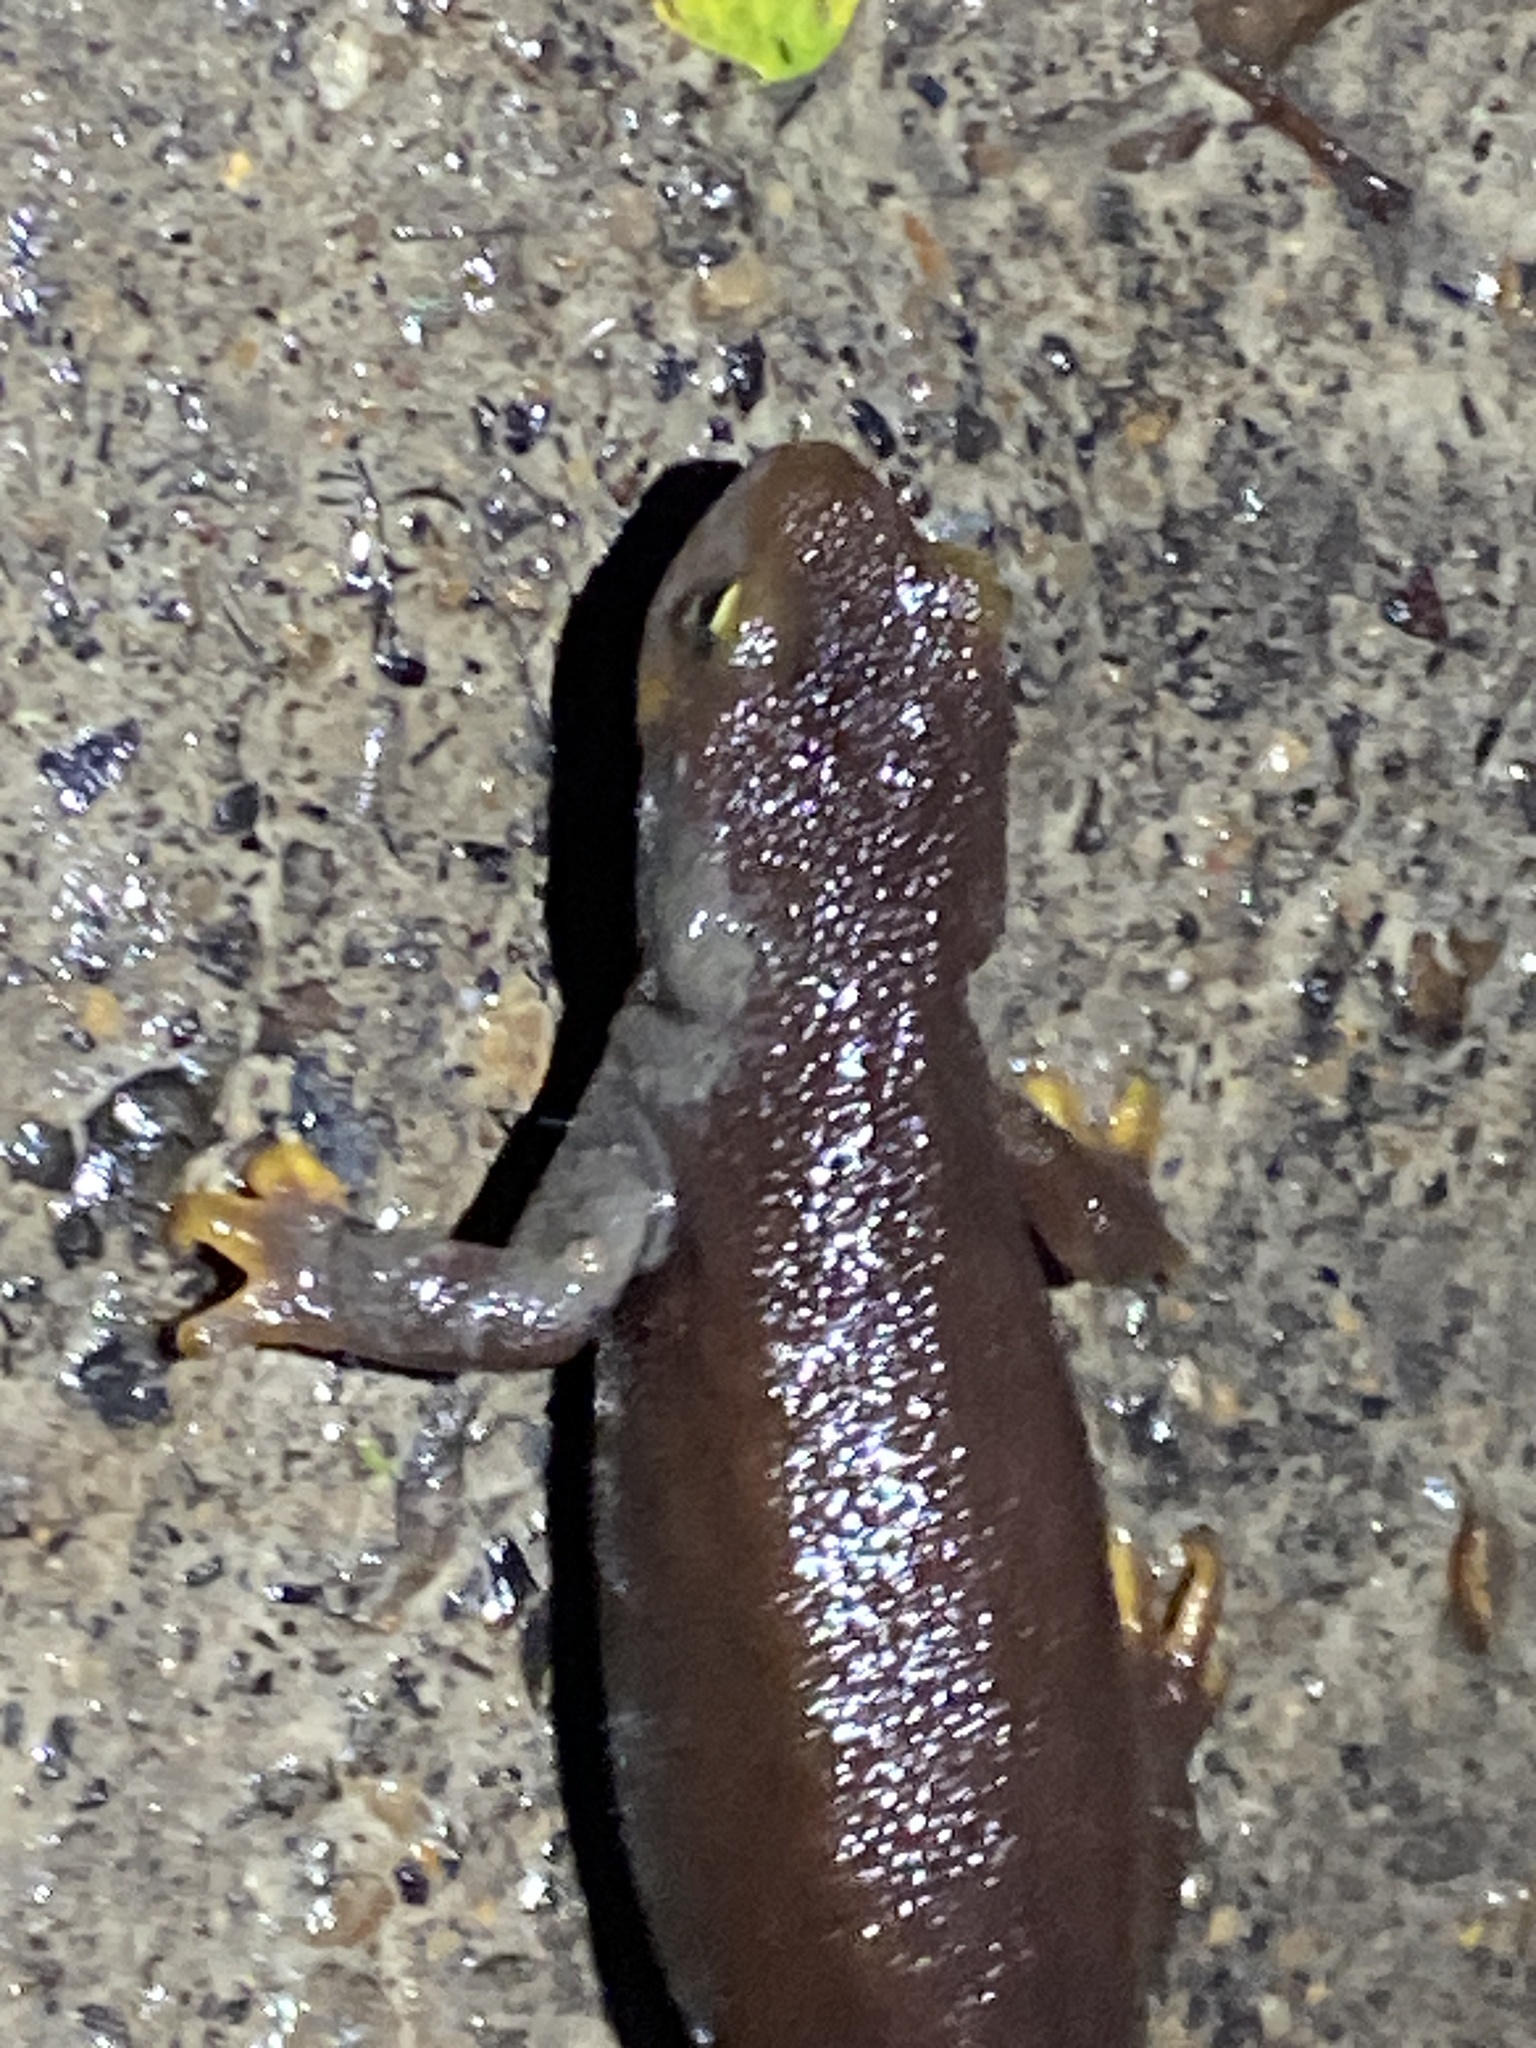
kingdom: Animalia
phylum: Chordata
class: Amphibia
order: Caudata
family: Salamandridae
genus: Taricha
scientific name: Taricha torosa
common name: California newt
